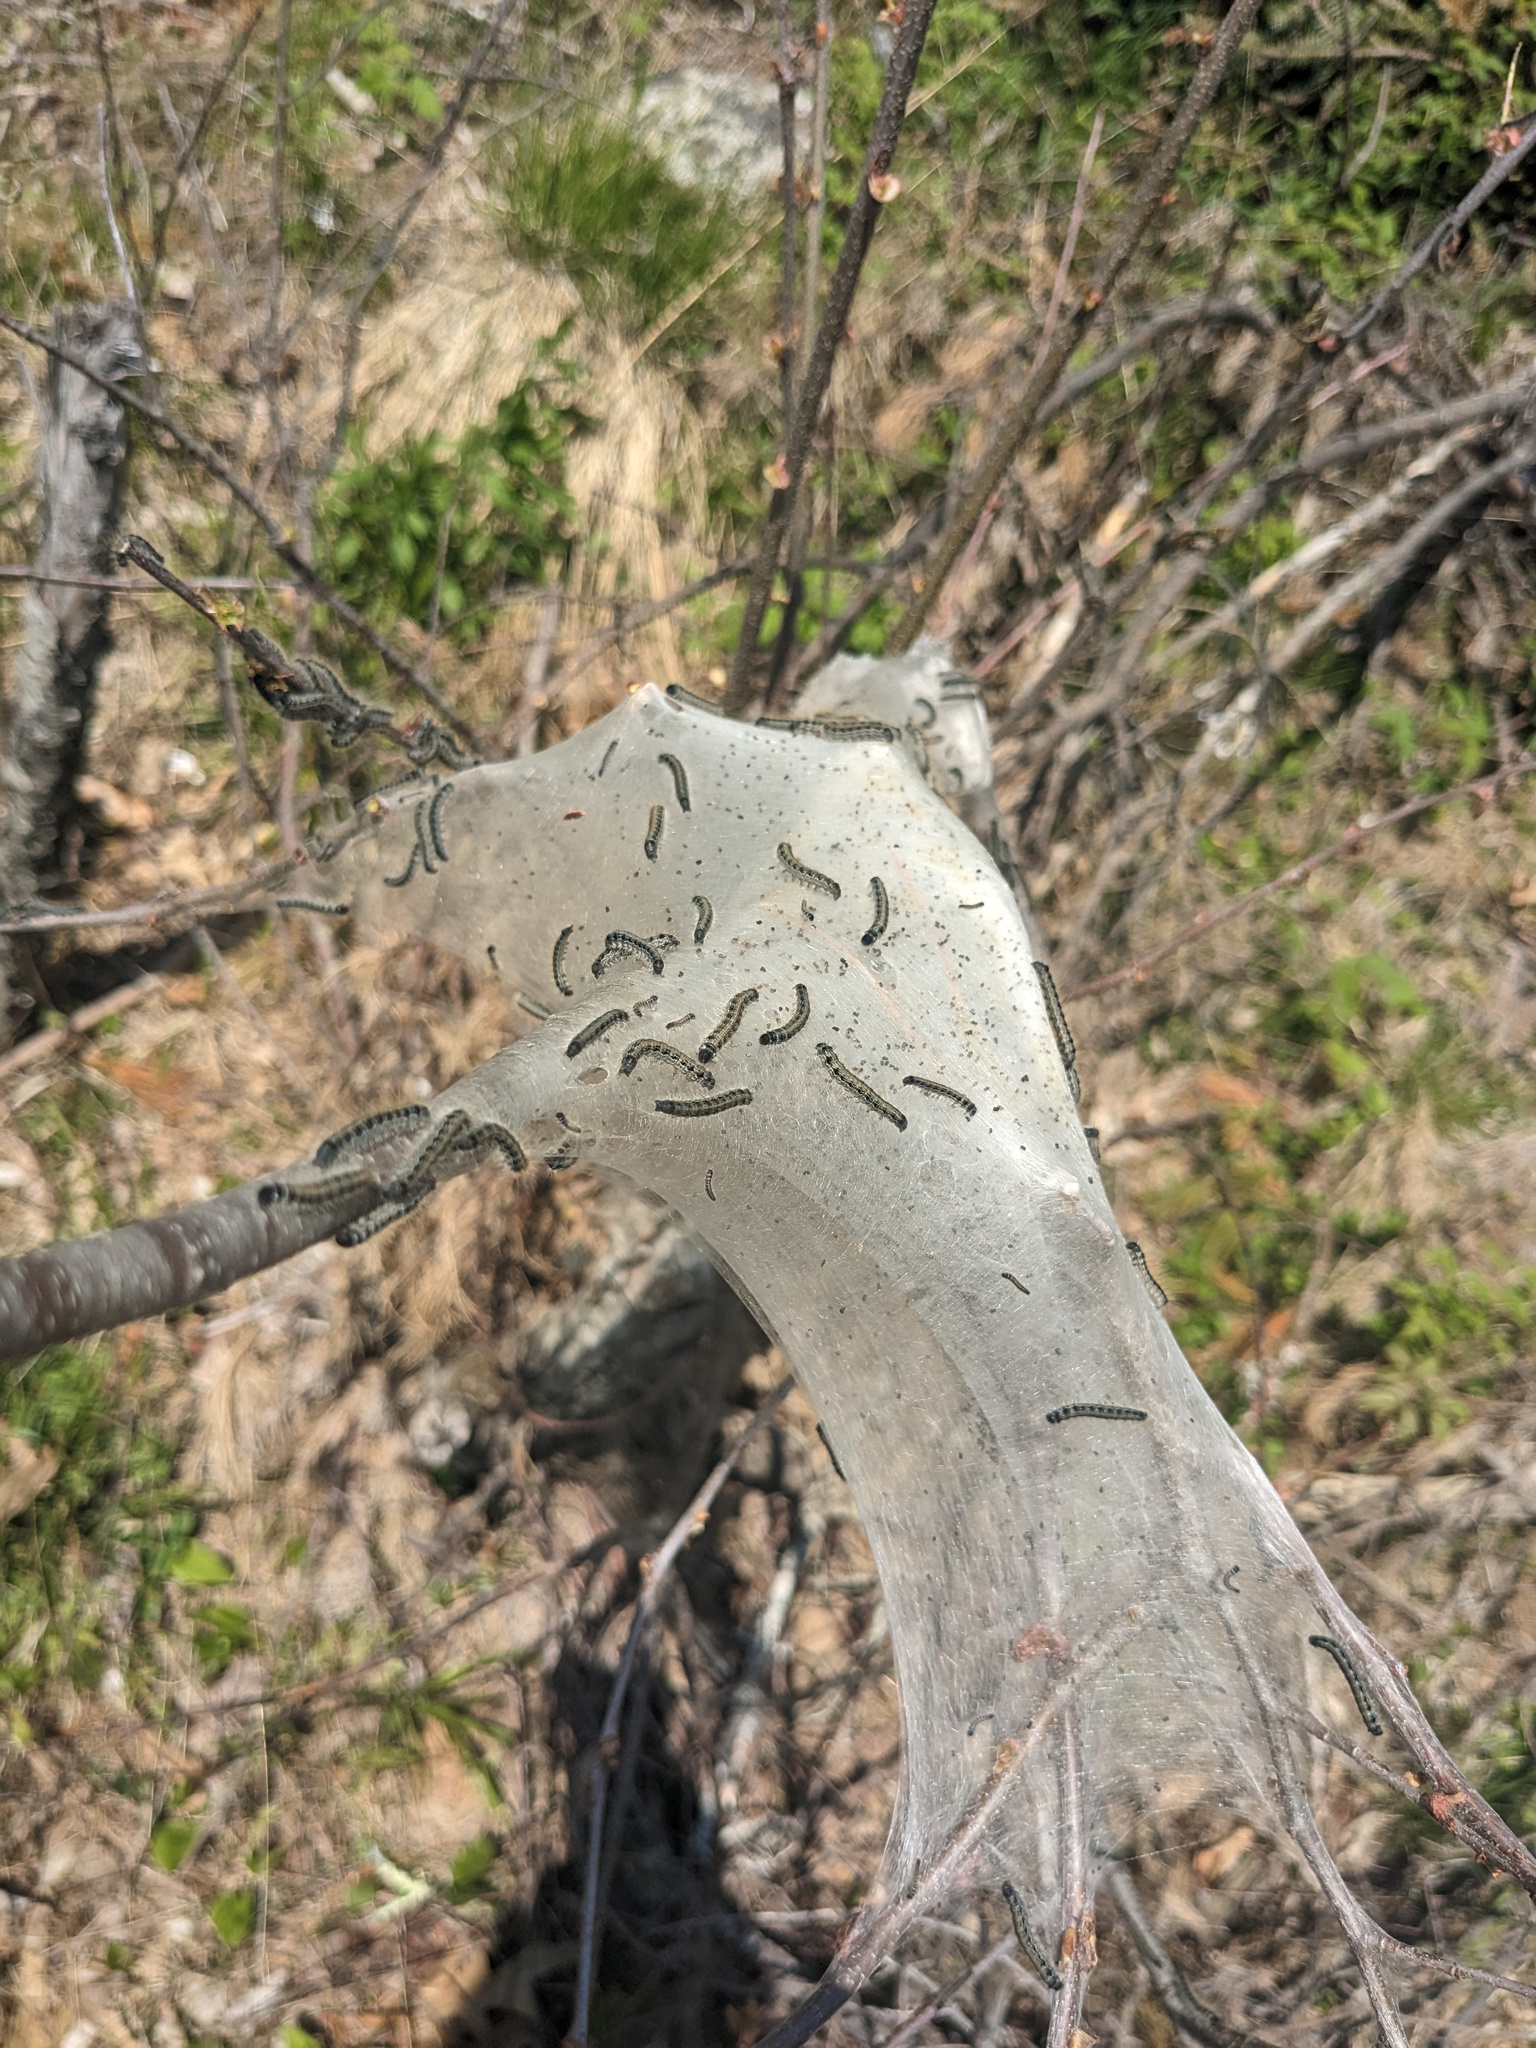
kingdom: Animalia
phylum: Arthropoda
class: Insecta
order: Lepidoptera
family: Lasiocampidae
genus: Malacosoma
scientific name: Malacosoma americana
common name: Eastern tent caterpillar moth
